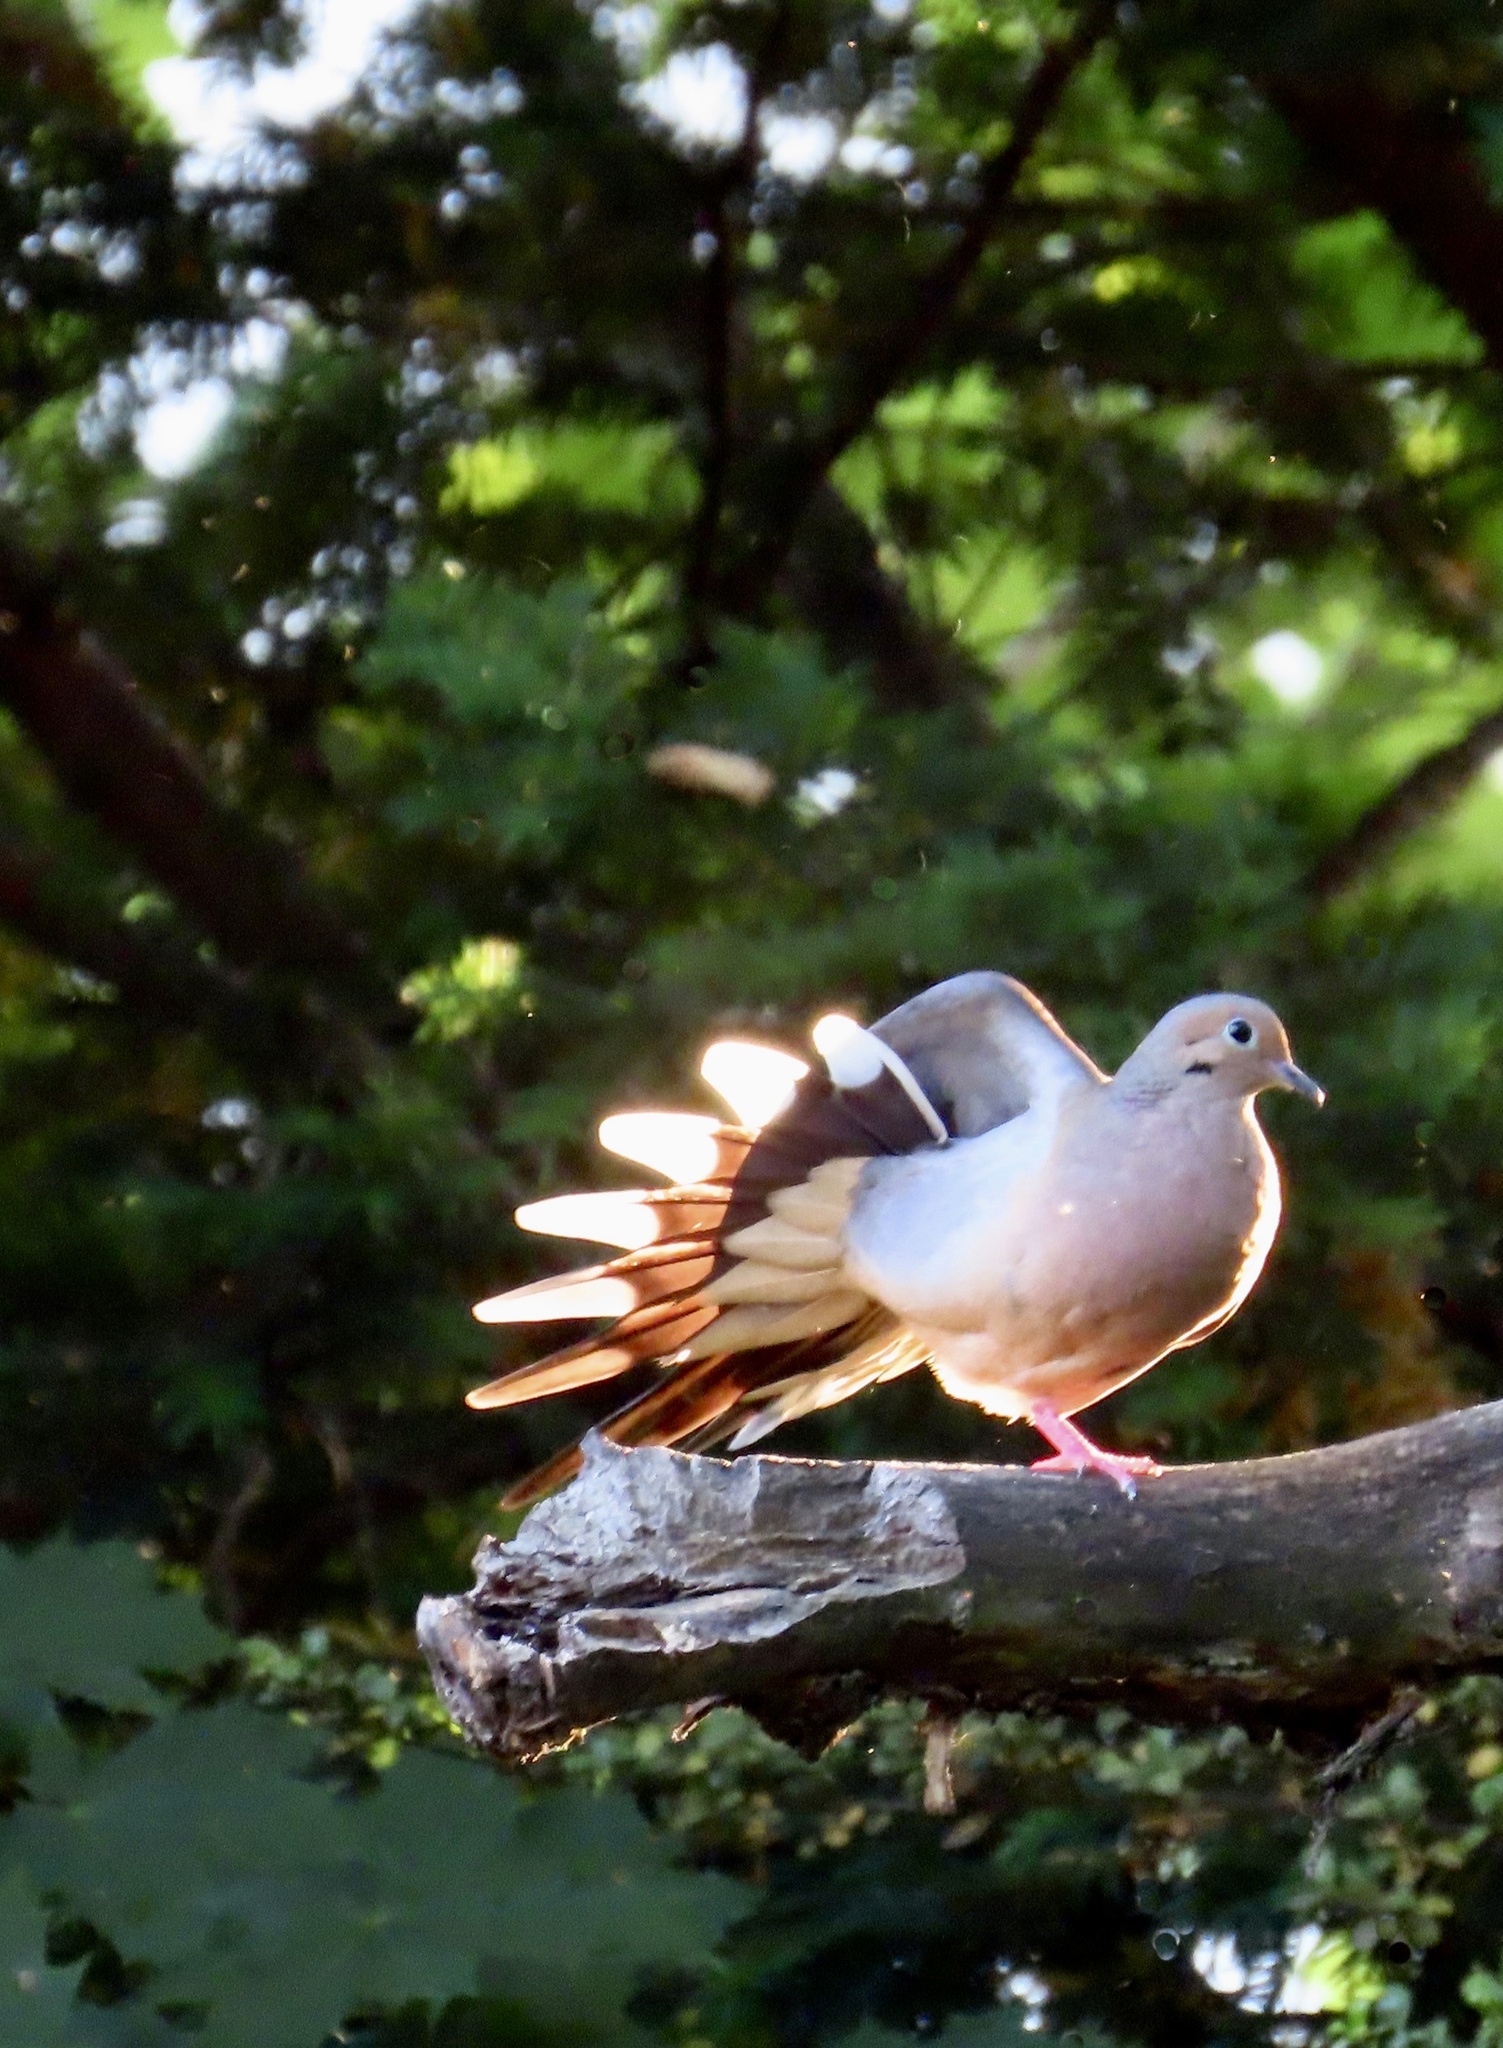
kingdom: Animalia
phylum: Chordata
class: Aves
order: Columbiformes
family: Columbidae
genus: Zenaida
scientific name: Zenaida macroura
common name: Mourning dove
